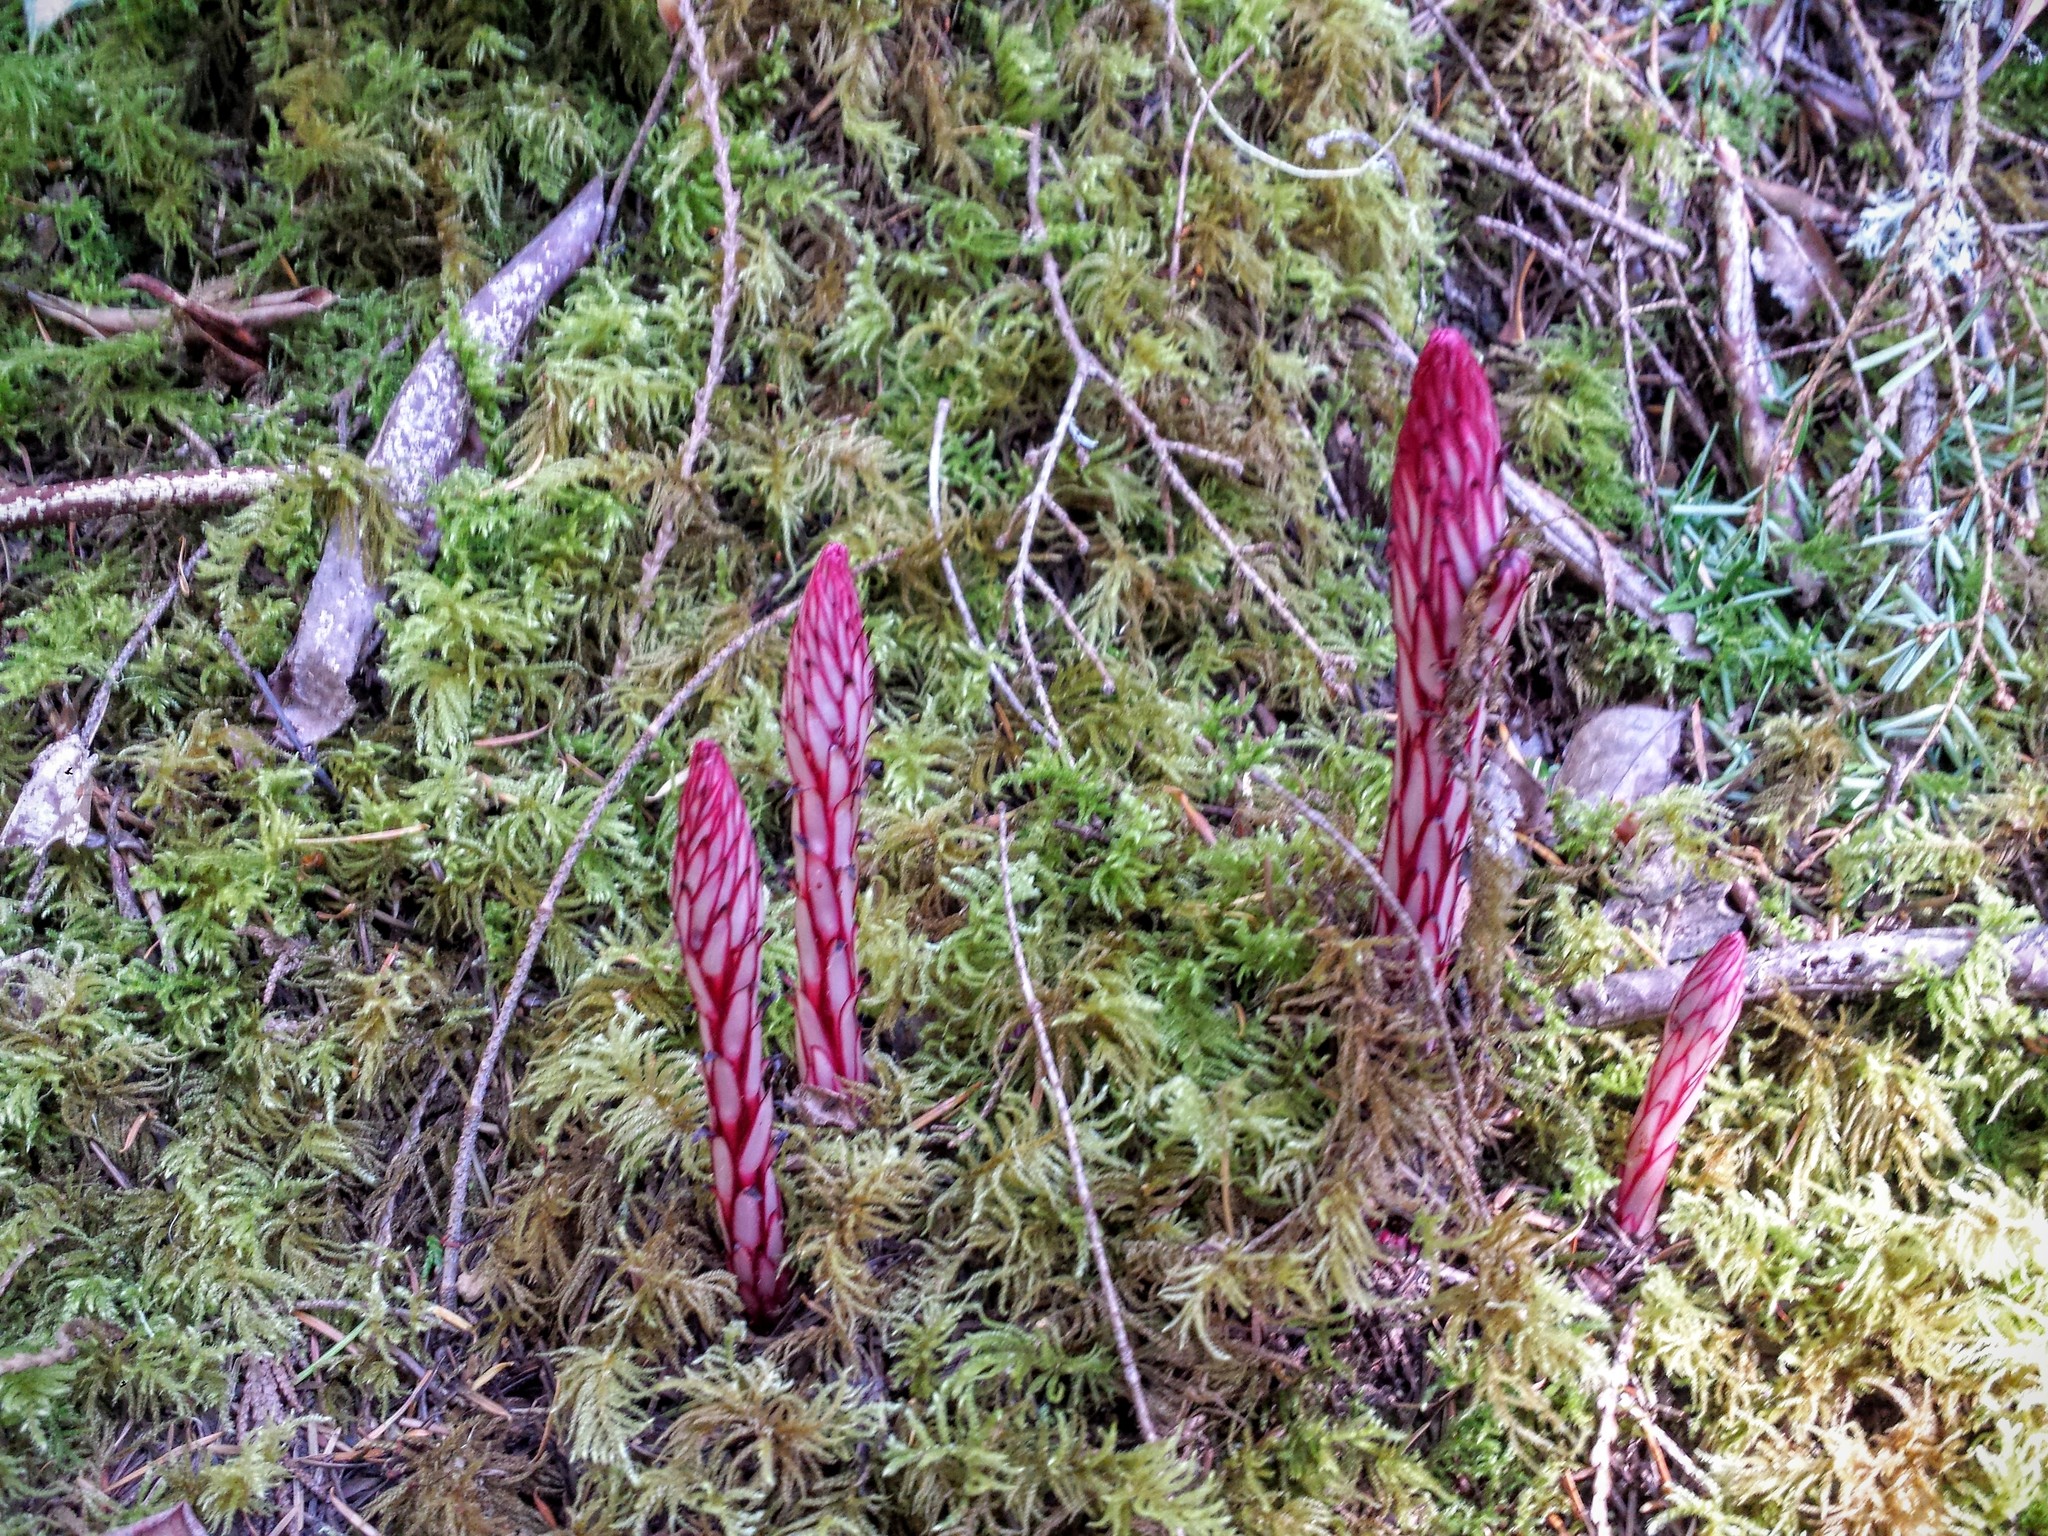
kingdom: Plantae
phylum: Tracheophyta
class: Magnoliopsida
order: Ericales
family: Ericaceae
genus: Allotropa
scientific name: Allotropa virgata
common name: Candy-striped allotropa
